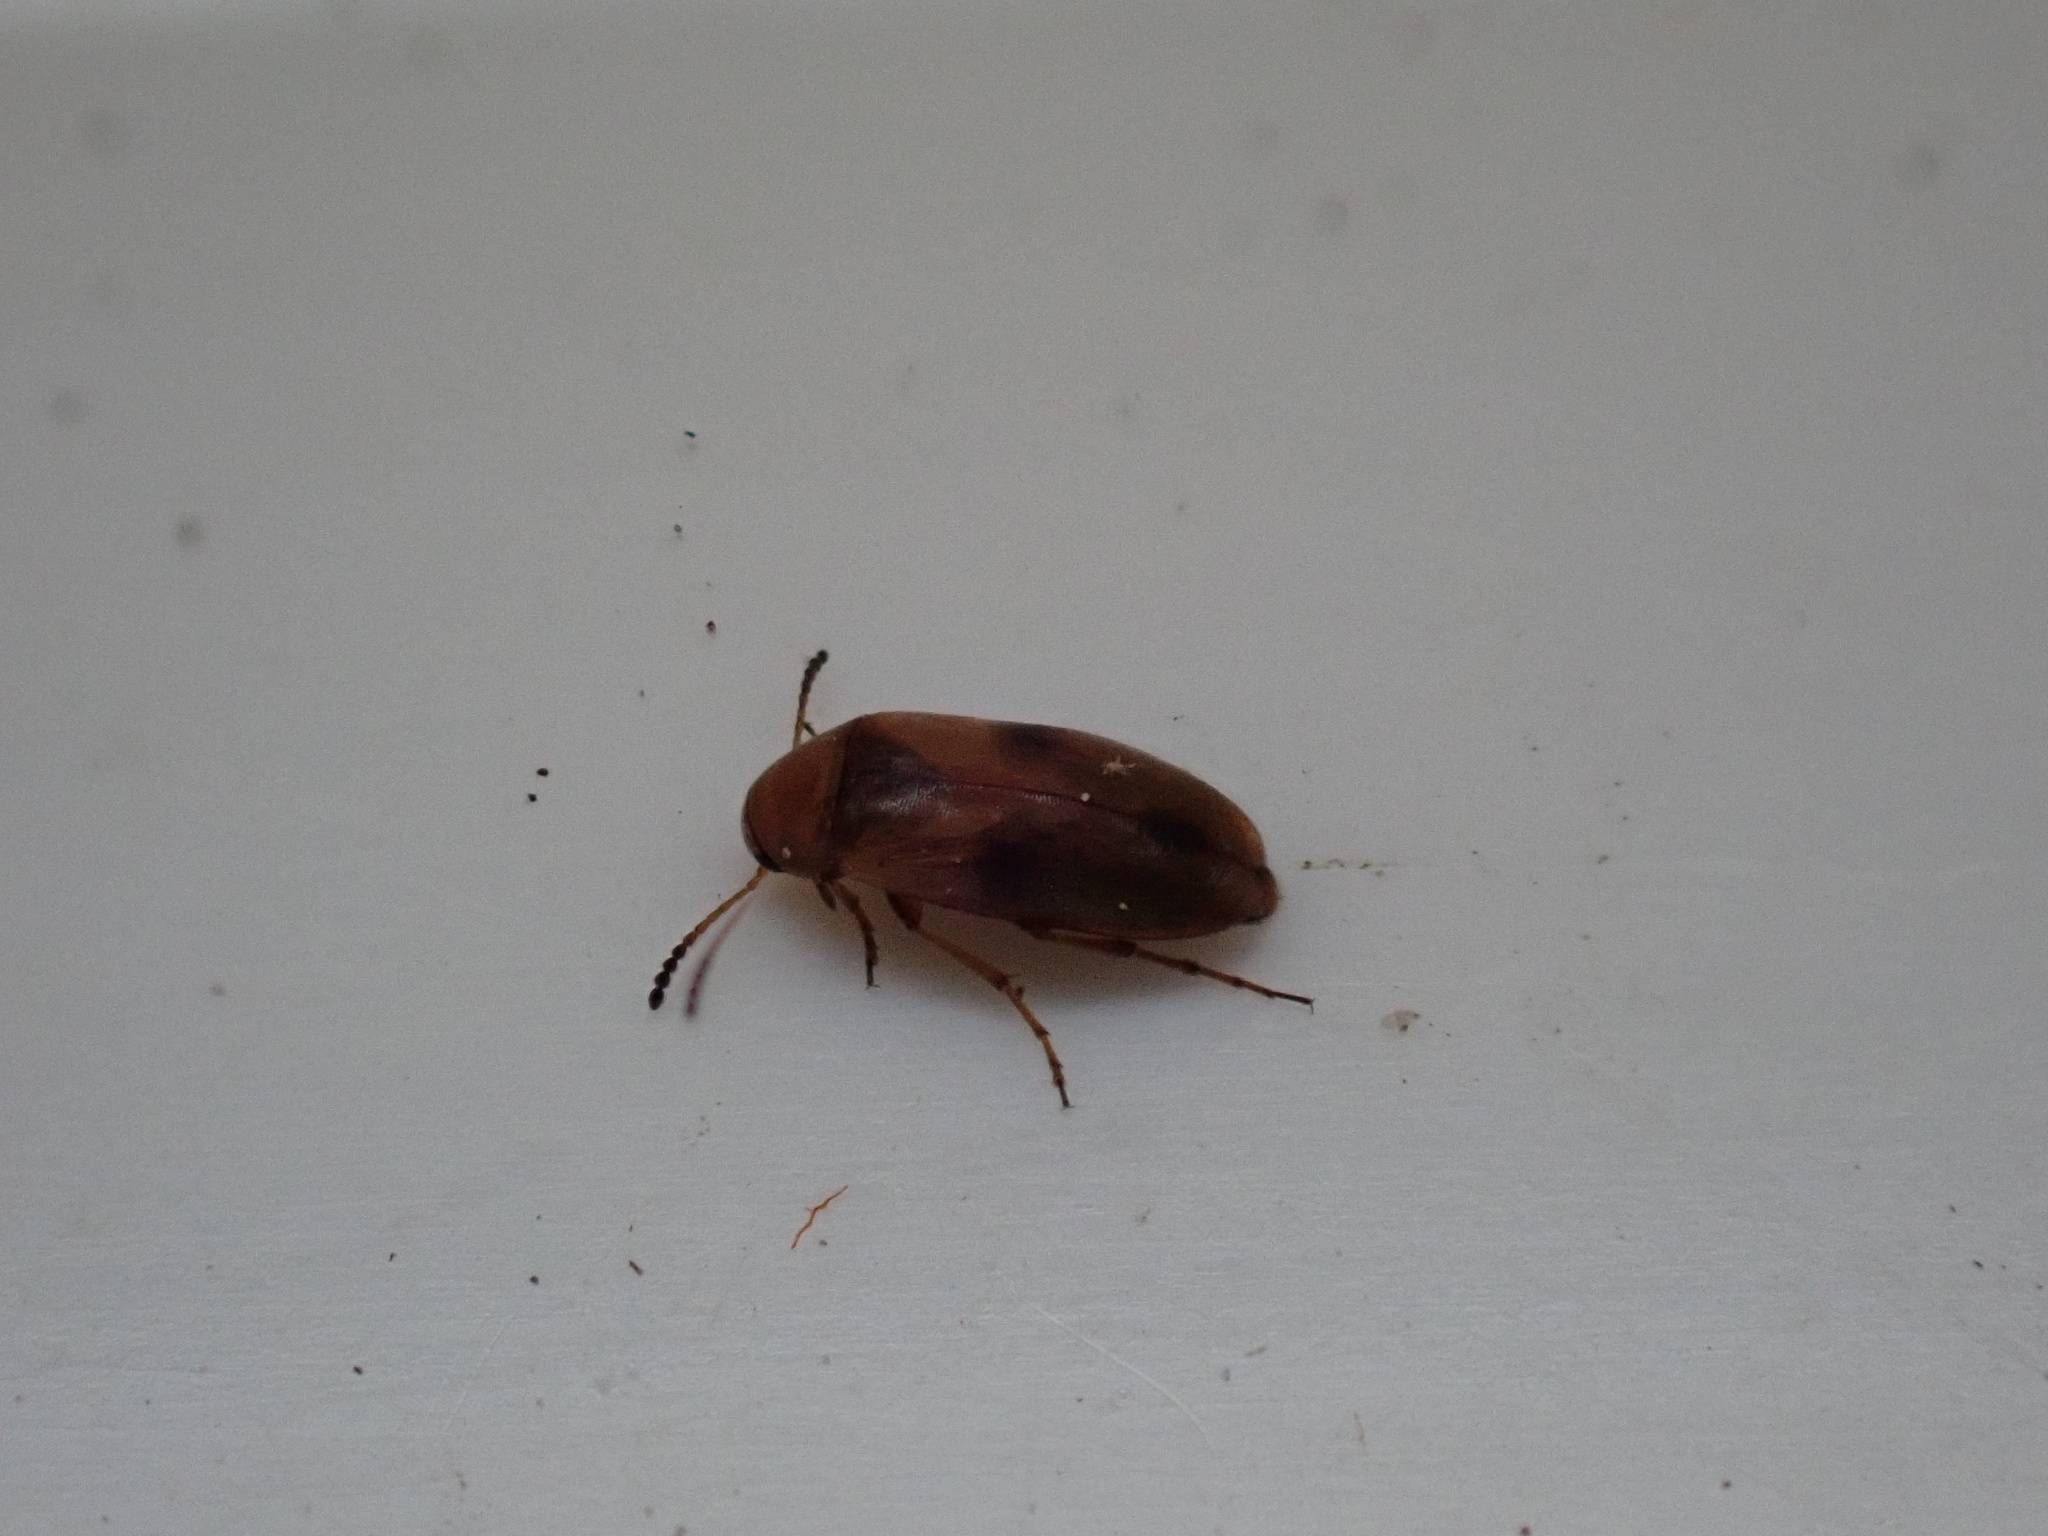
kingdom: Animalia
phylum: Arthropoda
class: Insecta
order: Coleoptera
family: Scraptiidae
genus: Anaspis
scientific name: Anaspis maculata
